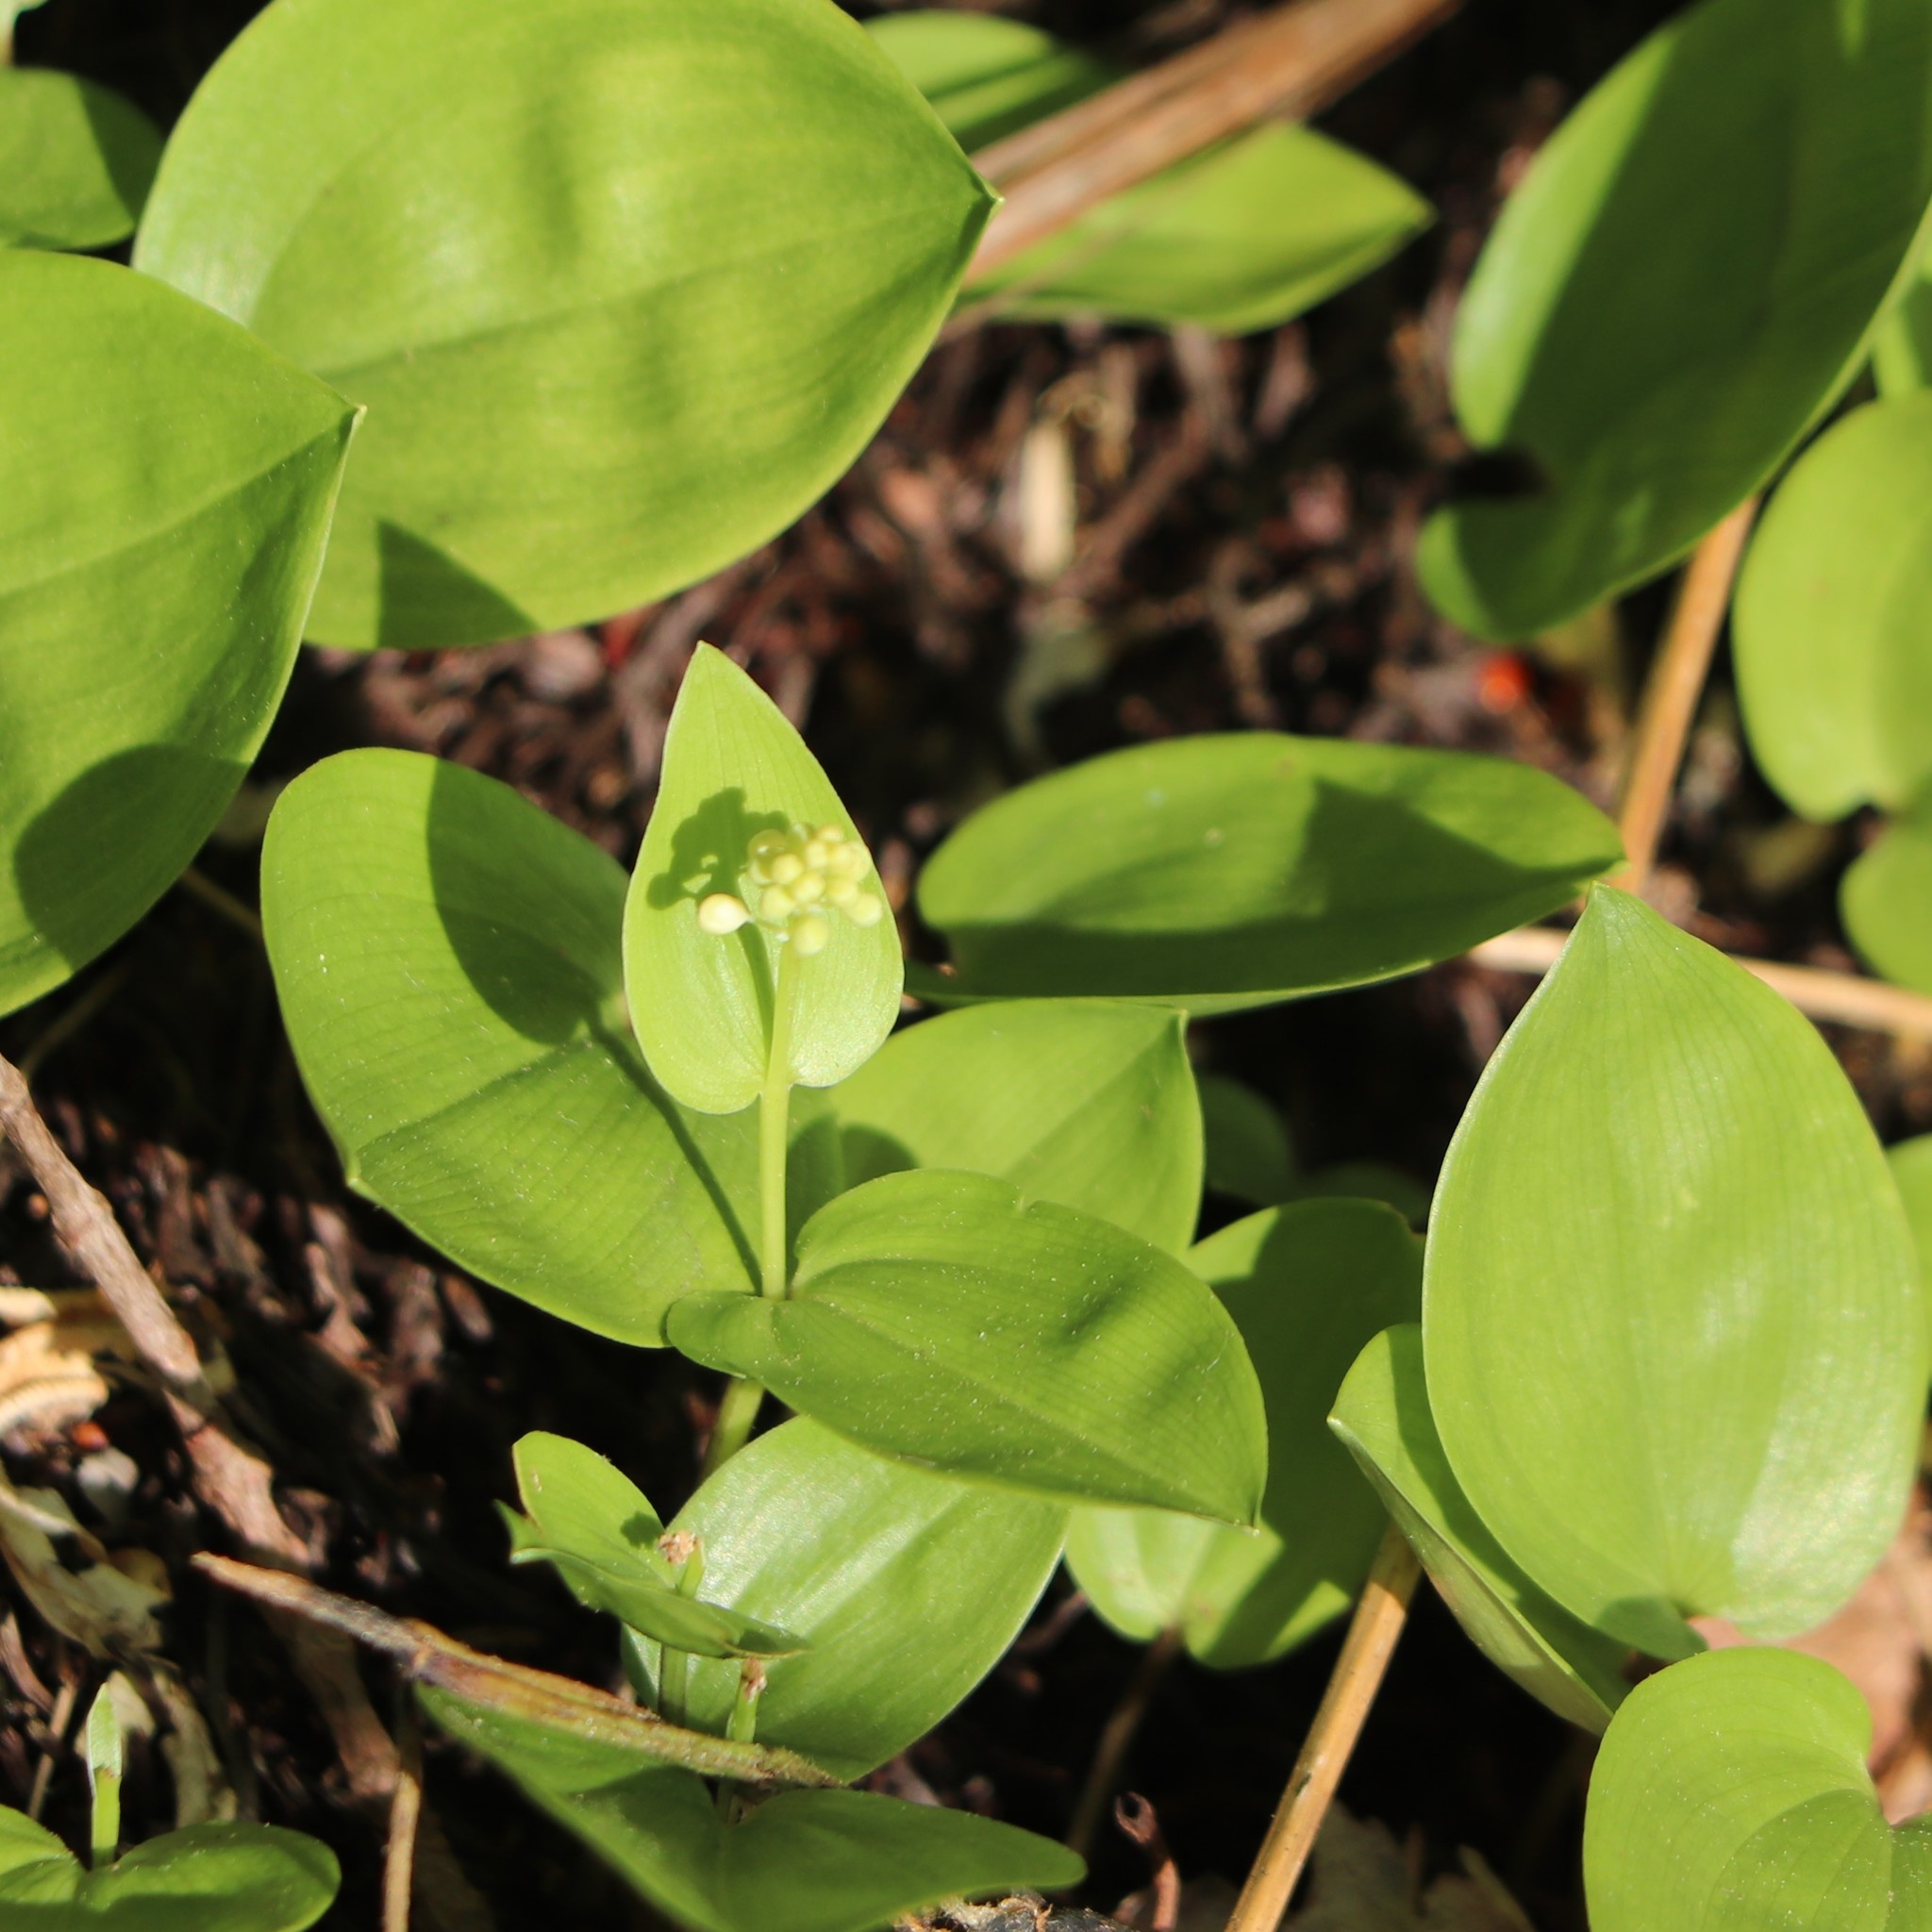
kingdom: Plantae
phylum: Tracheophyta
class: Liliopsida
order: Asparagales
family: Asparagaceae
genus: Maianthemum
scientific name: Maianthemum canadense
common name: False lily-of-the-valley
